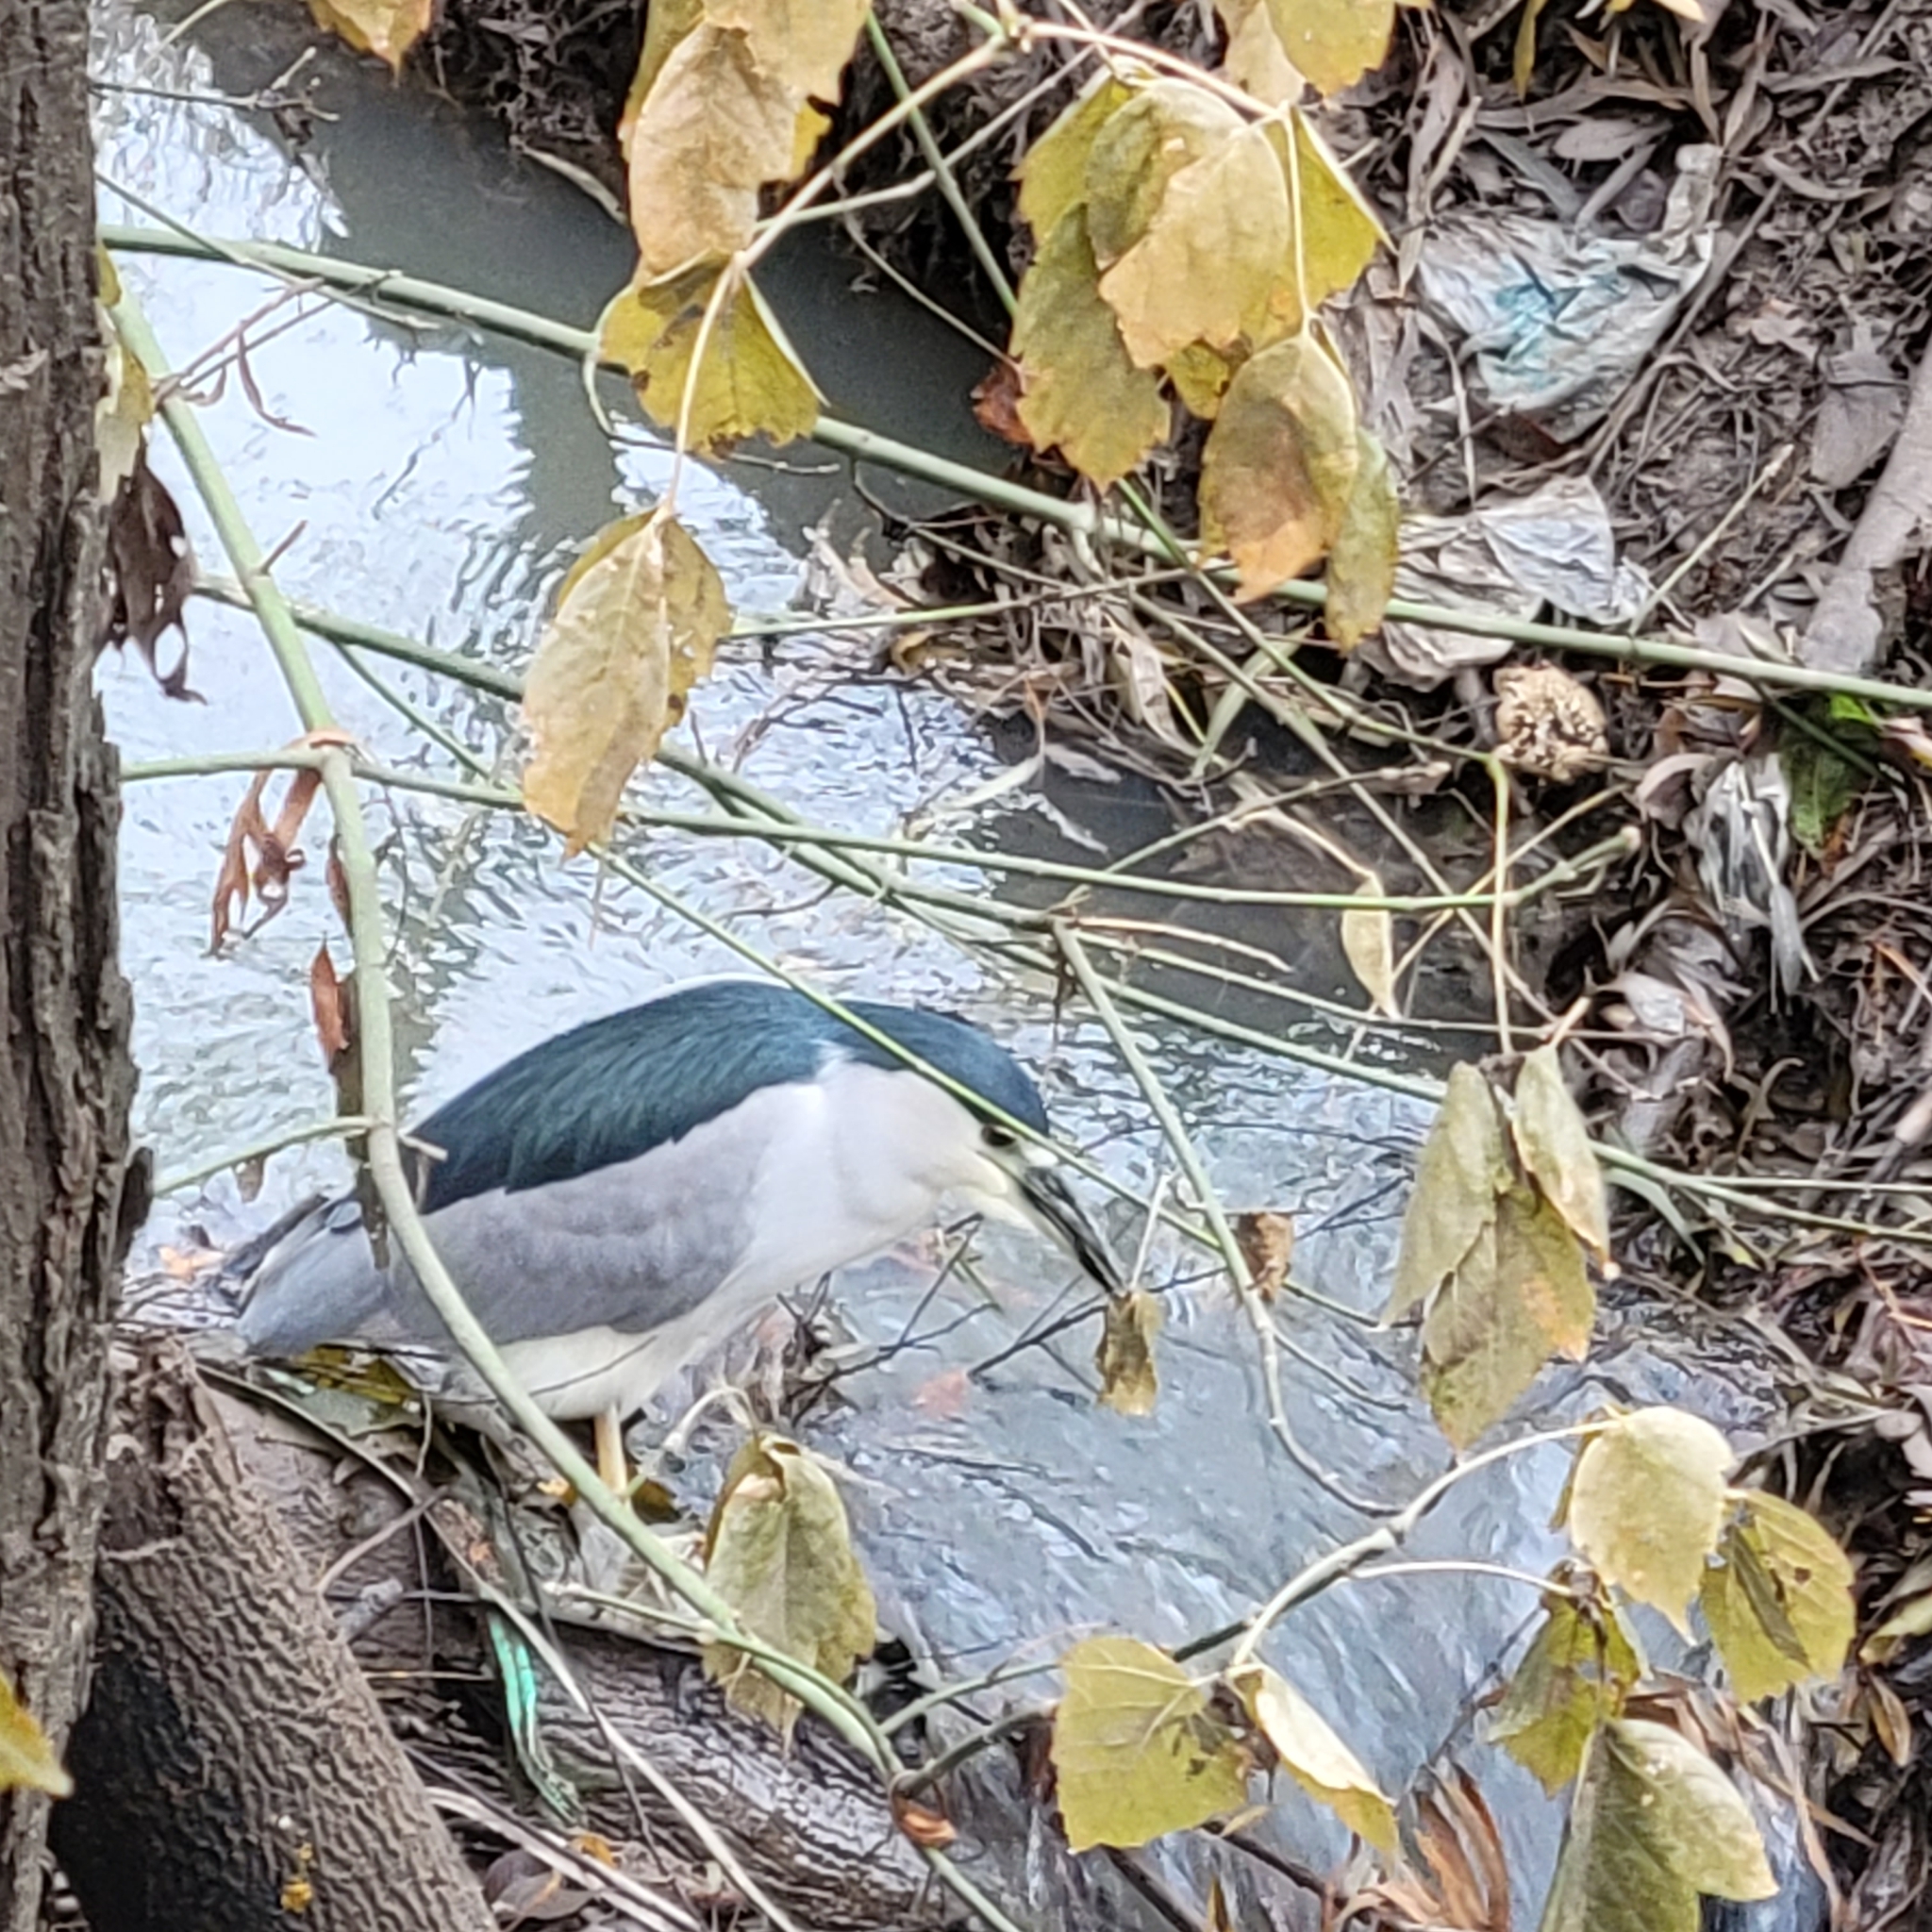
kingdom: Animalia
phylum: Chordata
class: Aves
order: Pelecaniformes
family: Ardeidae
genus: Nycticorax
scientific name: Nycticorax nycticorax
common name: Black-crowned night heron
